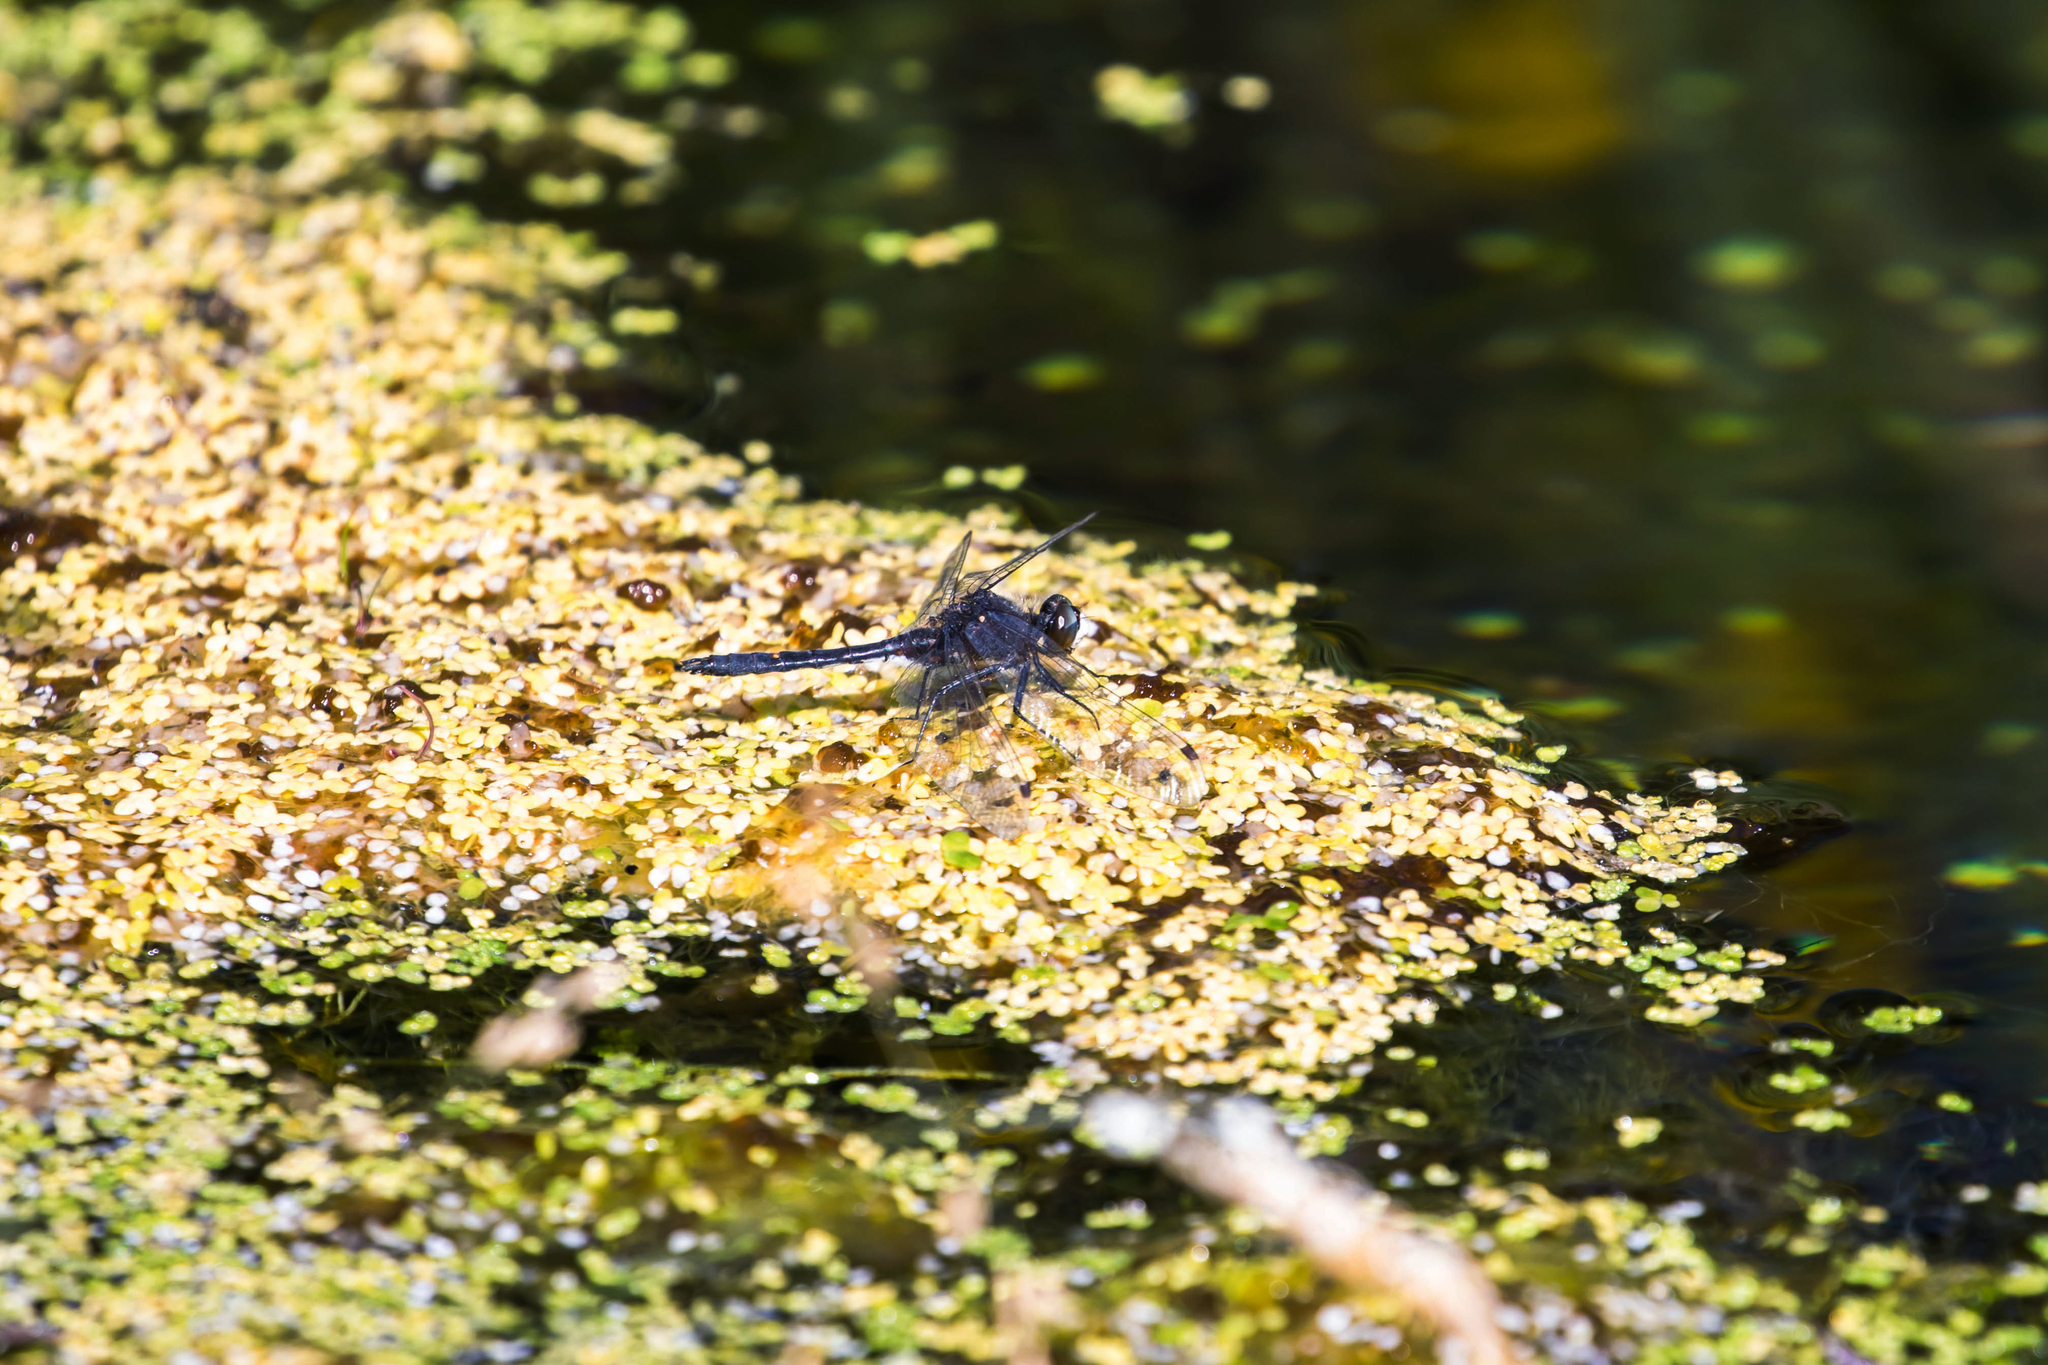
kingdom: Animalia
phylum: Arthropoda
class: Insecta
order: Odonata
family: Libellulidae
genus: Leucorrhinia
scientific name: Leucorrhinia intacta
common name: Dot-tailed whiteface
